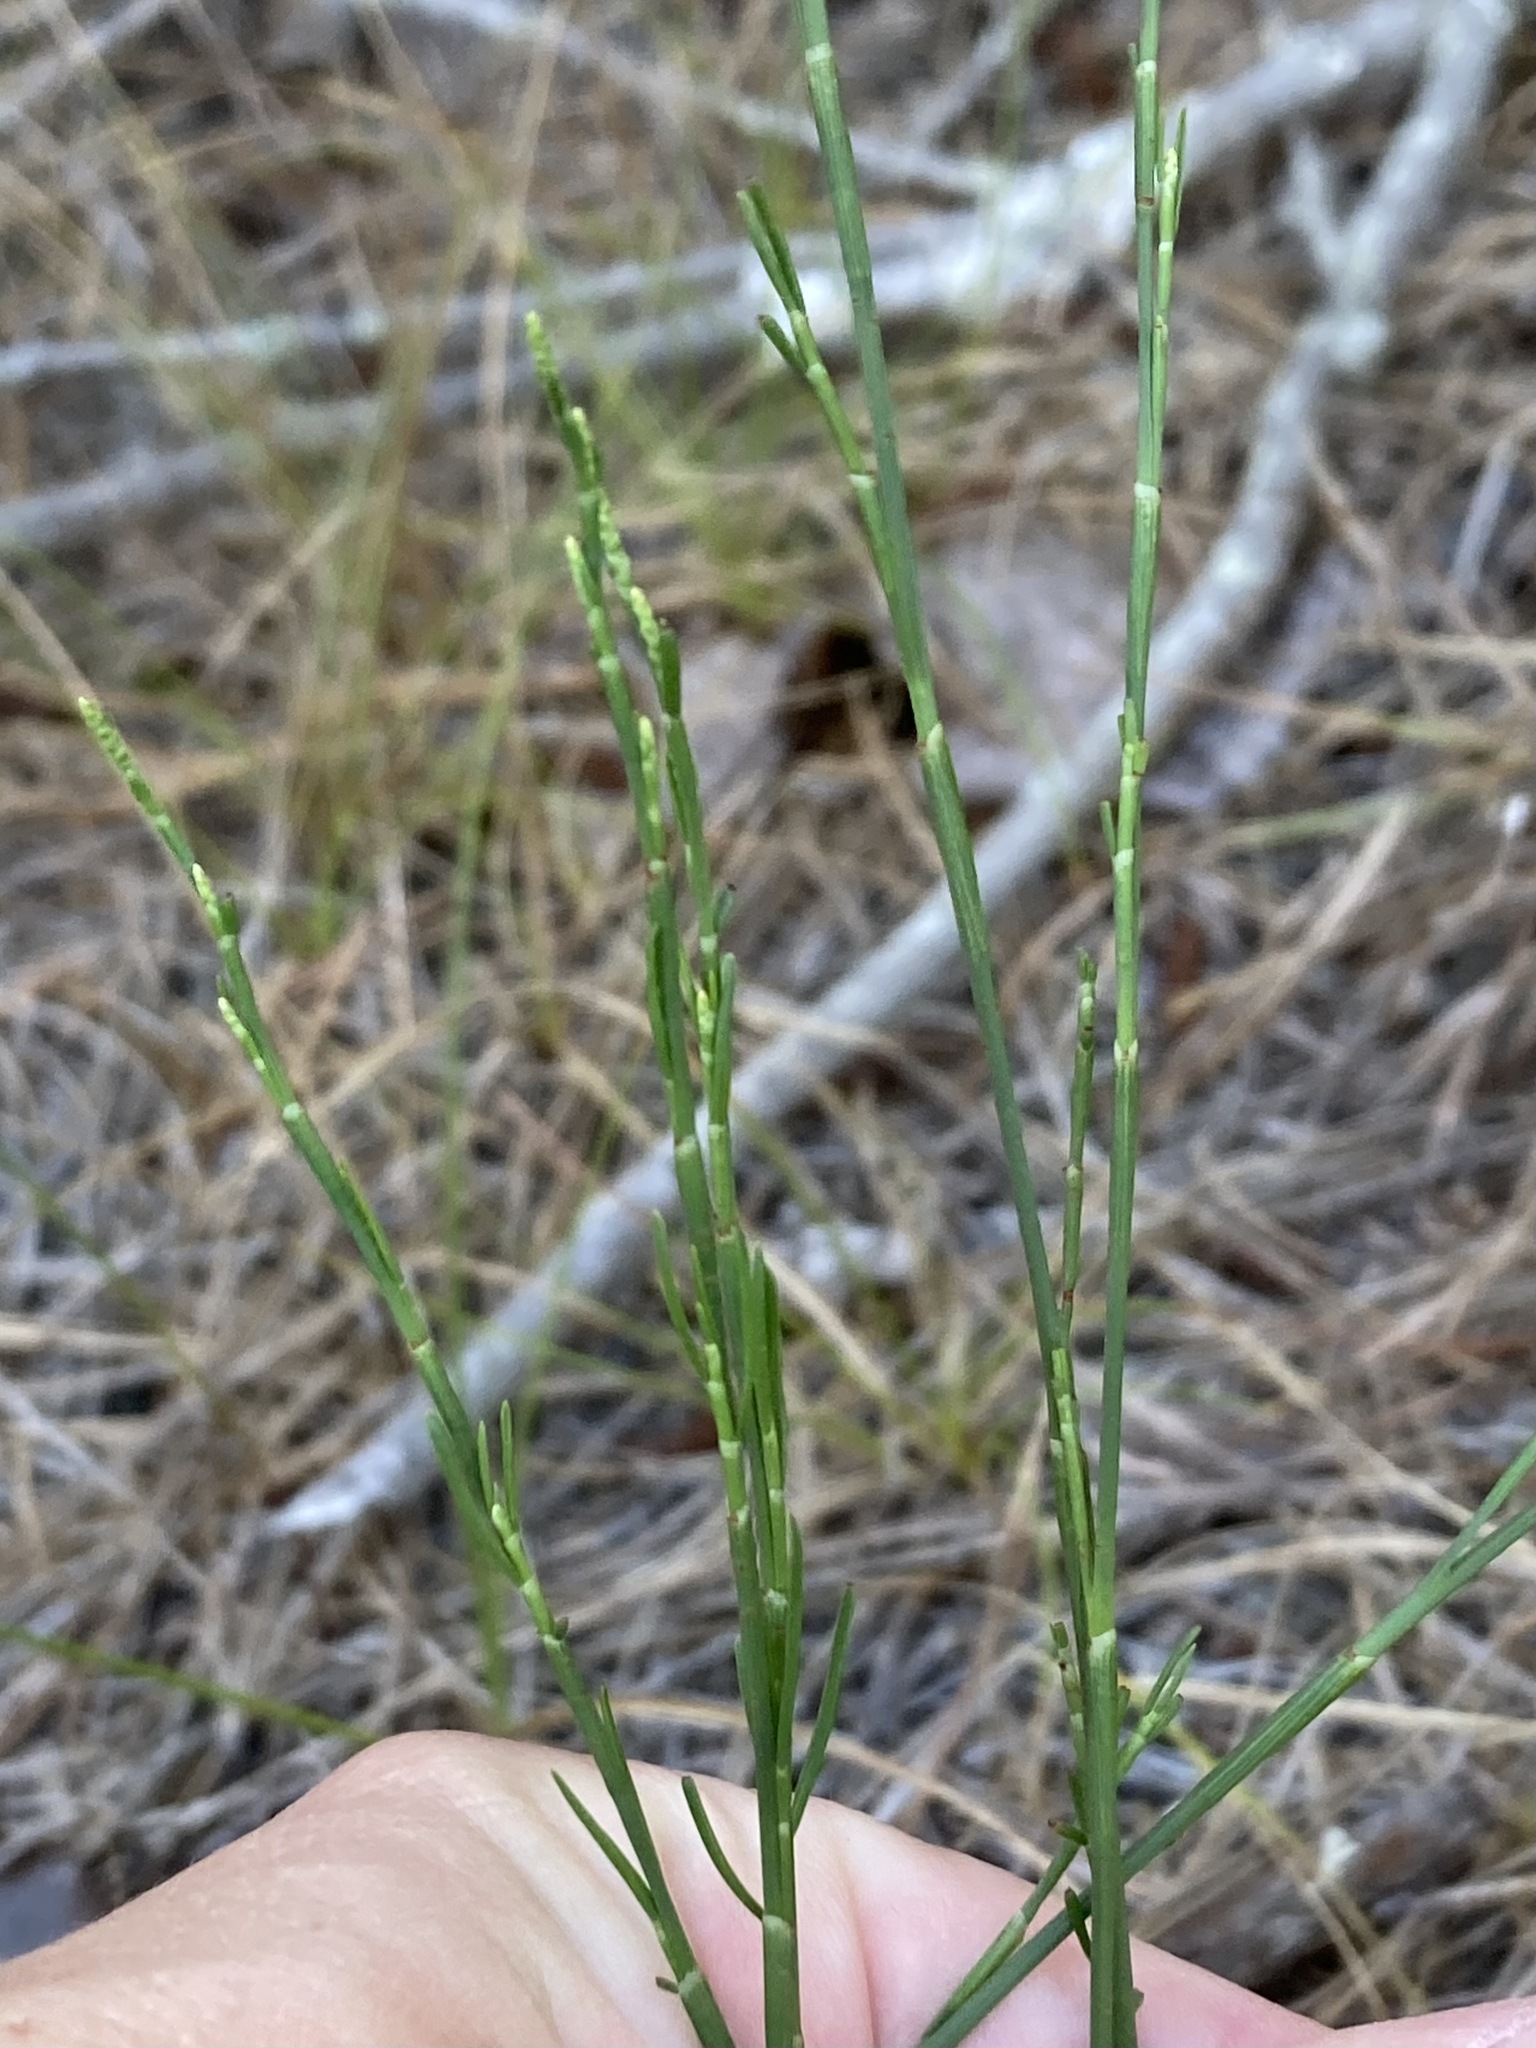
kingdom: Plantae
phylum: Tracheophyta
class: Magnoliopsida
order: Caryophyllales
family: Polygonaceae
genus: Polygonella
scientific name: Polygonella articulata
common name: Coastal jointweed
